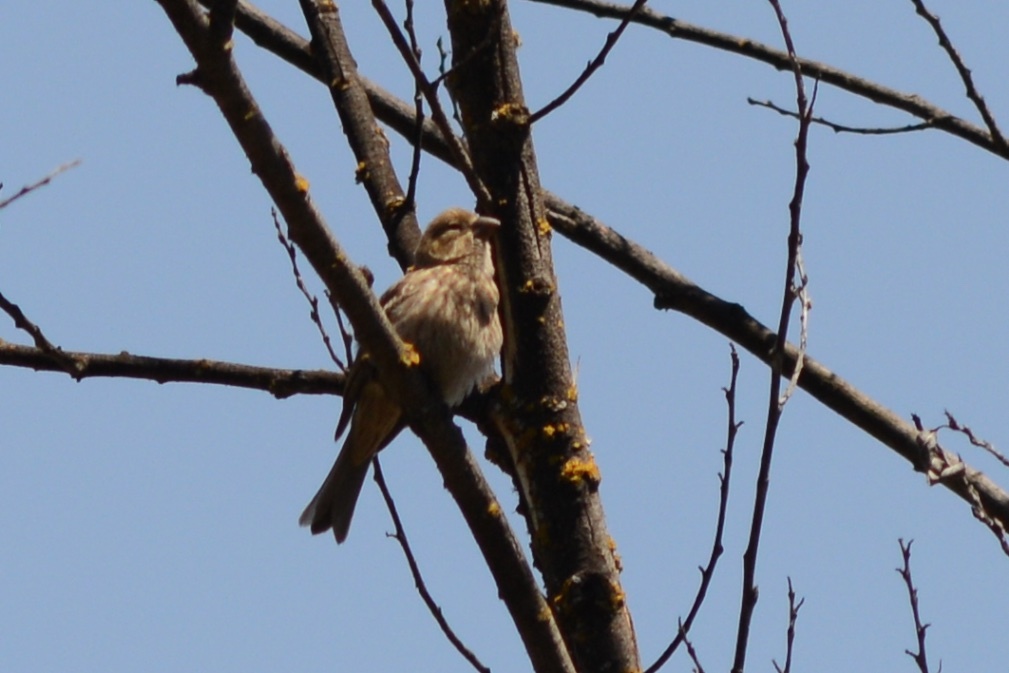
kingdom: Animalia
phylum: Chordata
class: Aves
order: Passeriformes
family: Fringillidae
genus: Haemorhous
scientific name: Haemorhous mexicanus
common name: House finch
